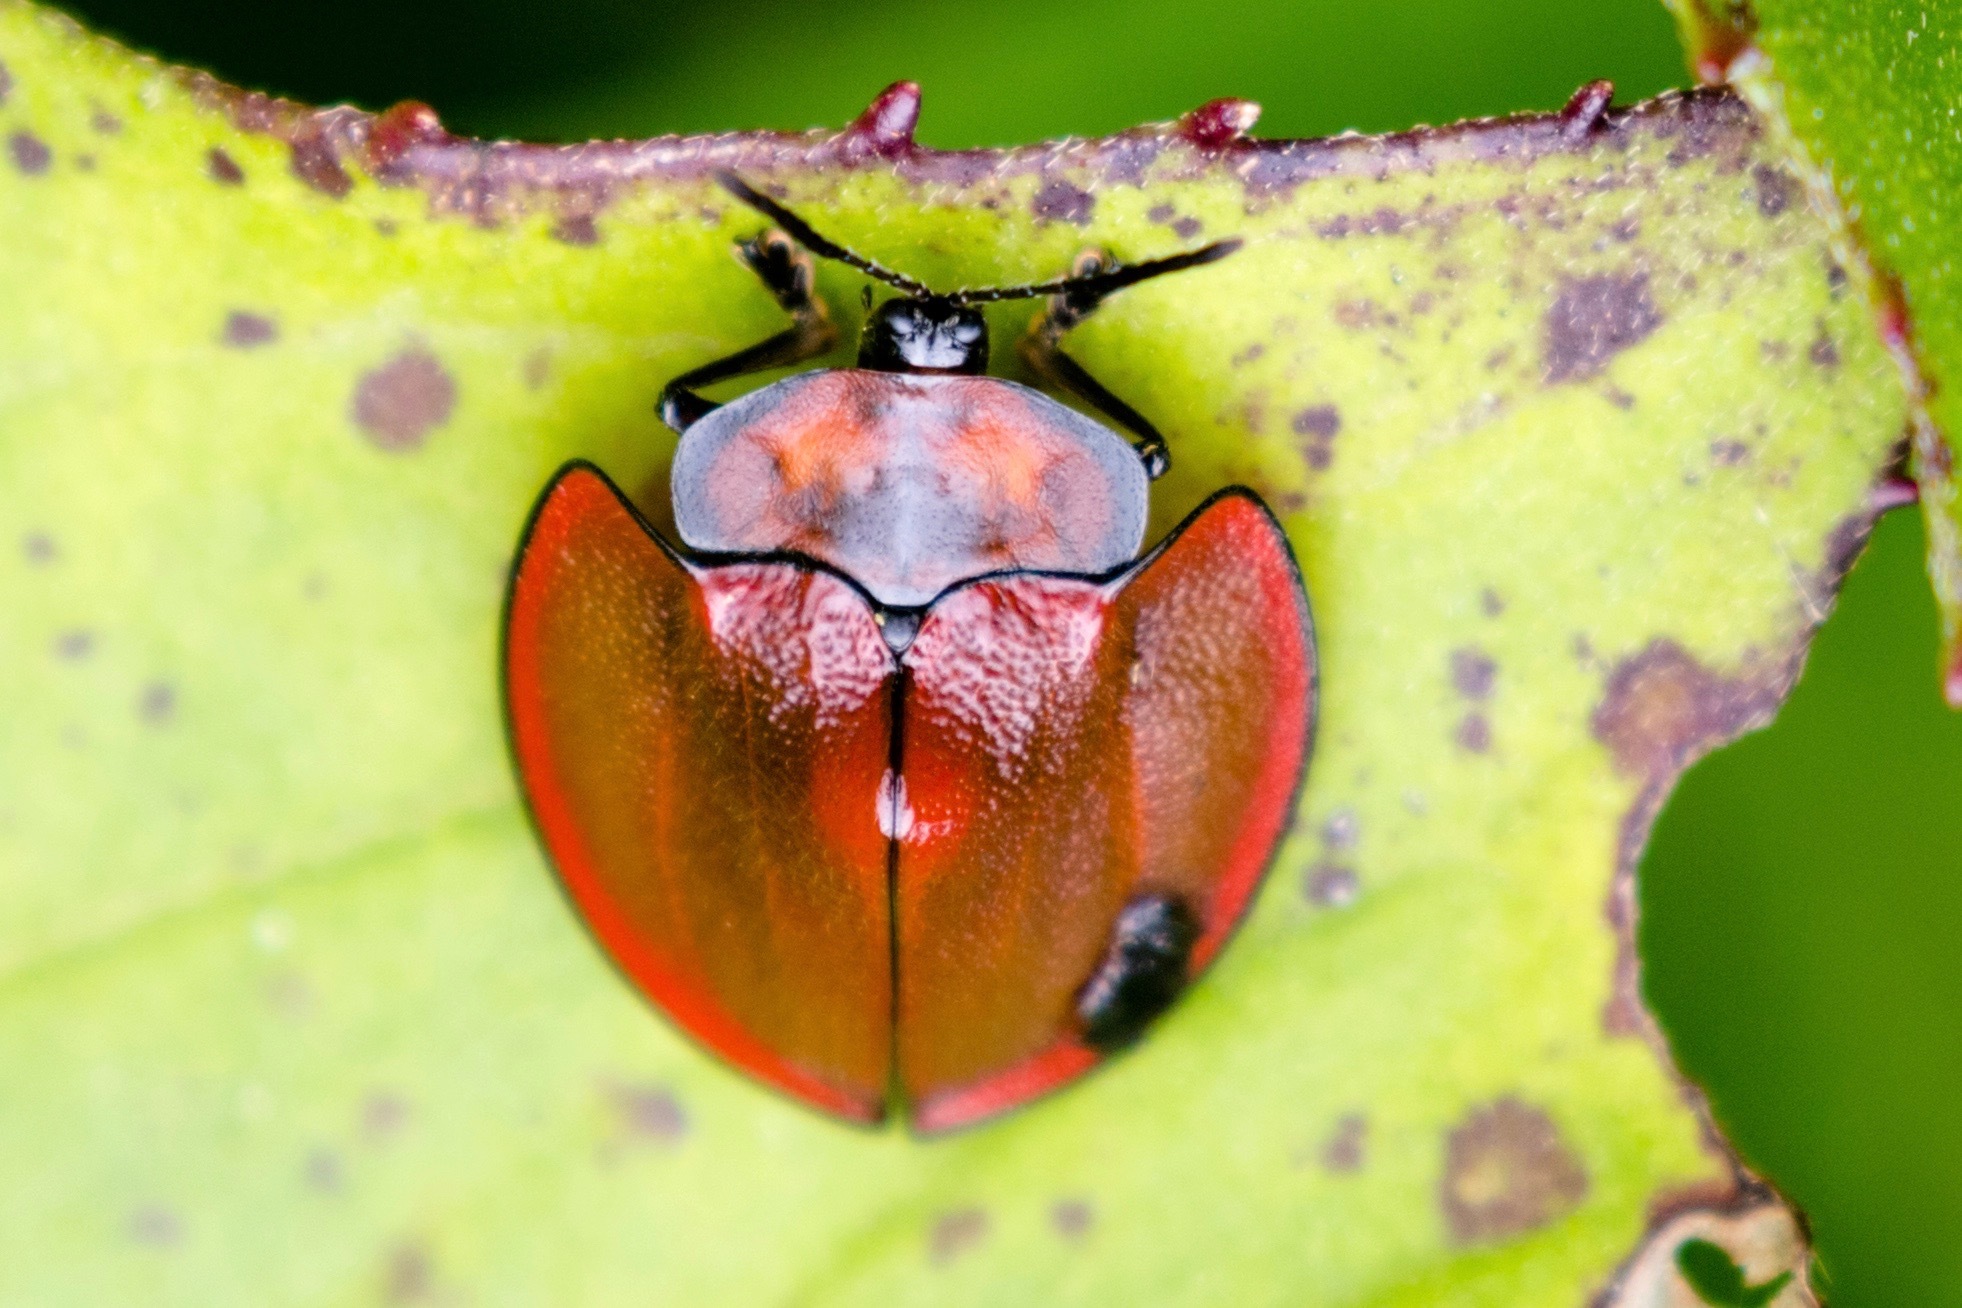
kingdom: Animalia
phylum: Arthropoda
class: Insecta
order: Coleoptera
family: Chrysomelidae
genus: Cyrtonota
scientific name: Cyrtonota marginata
